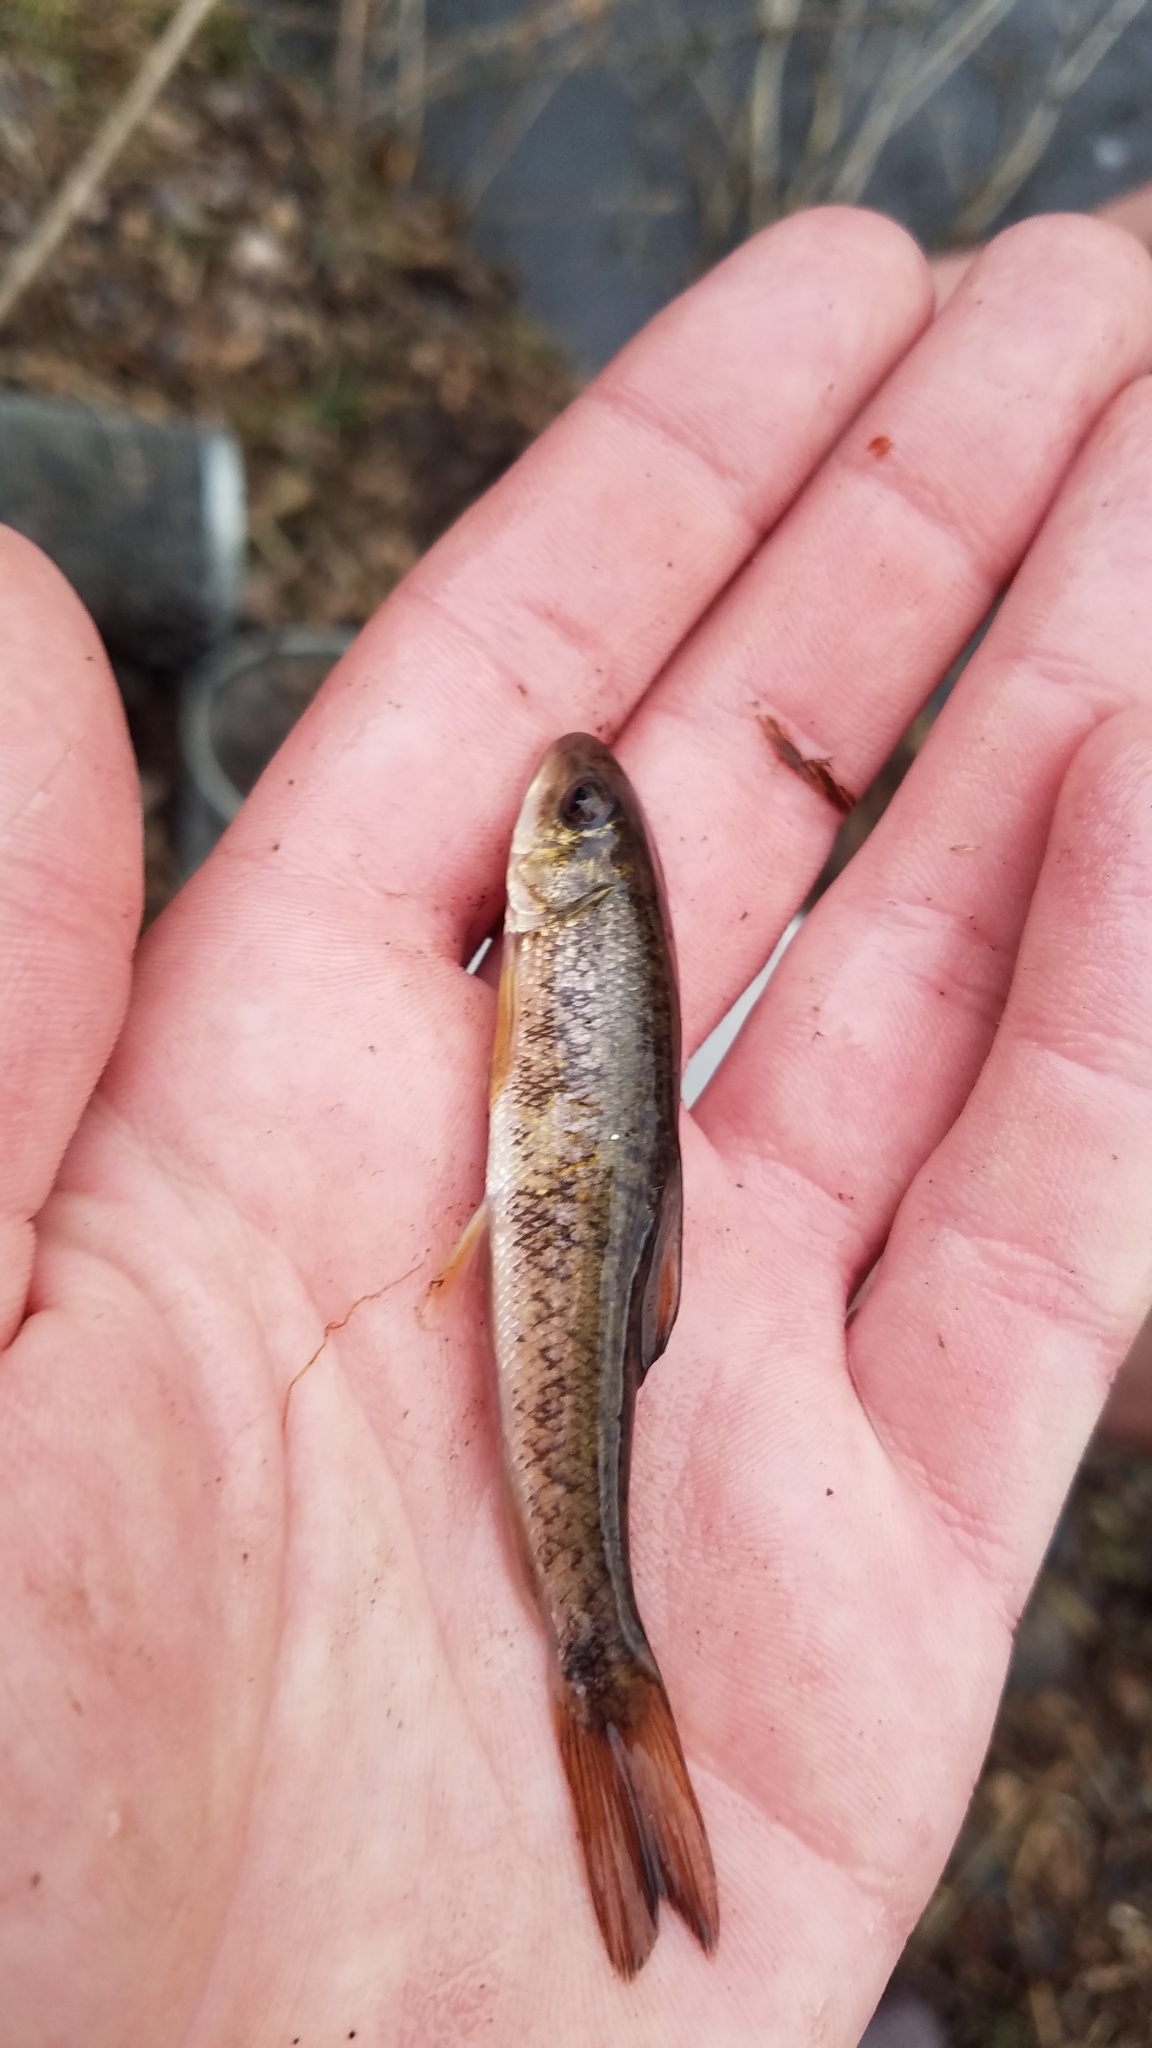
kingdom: Animalia
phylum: Chordata
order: Cypriniformes
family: Catostomidae
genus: Catostomus
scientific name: Catostomus commersonii
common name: White sucker
